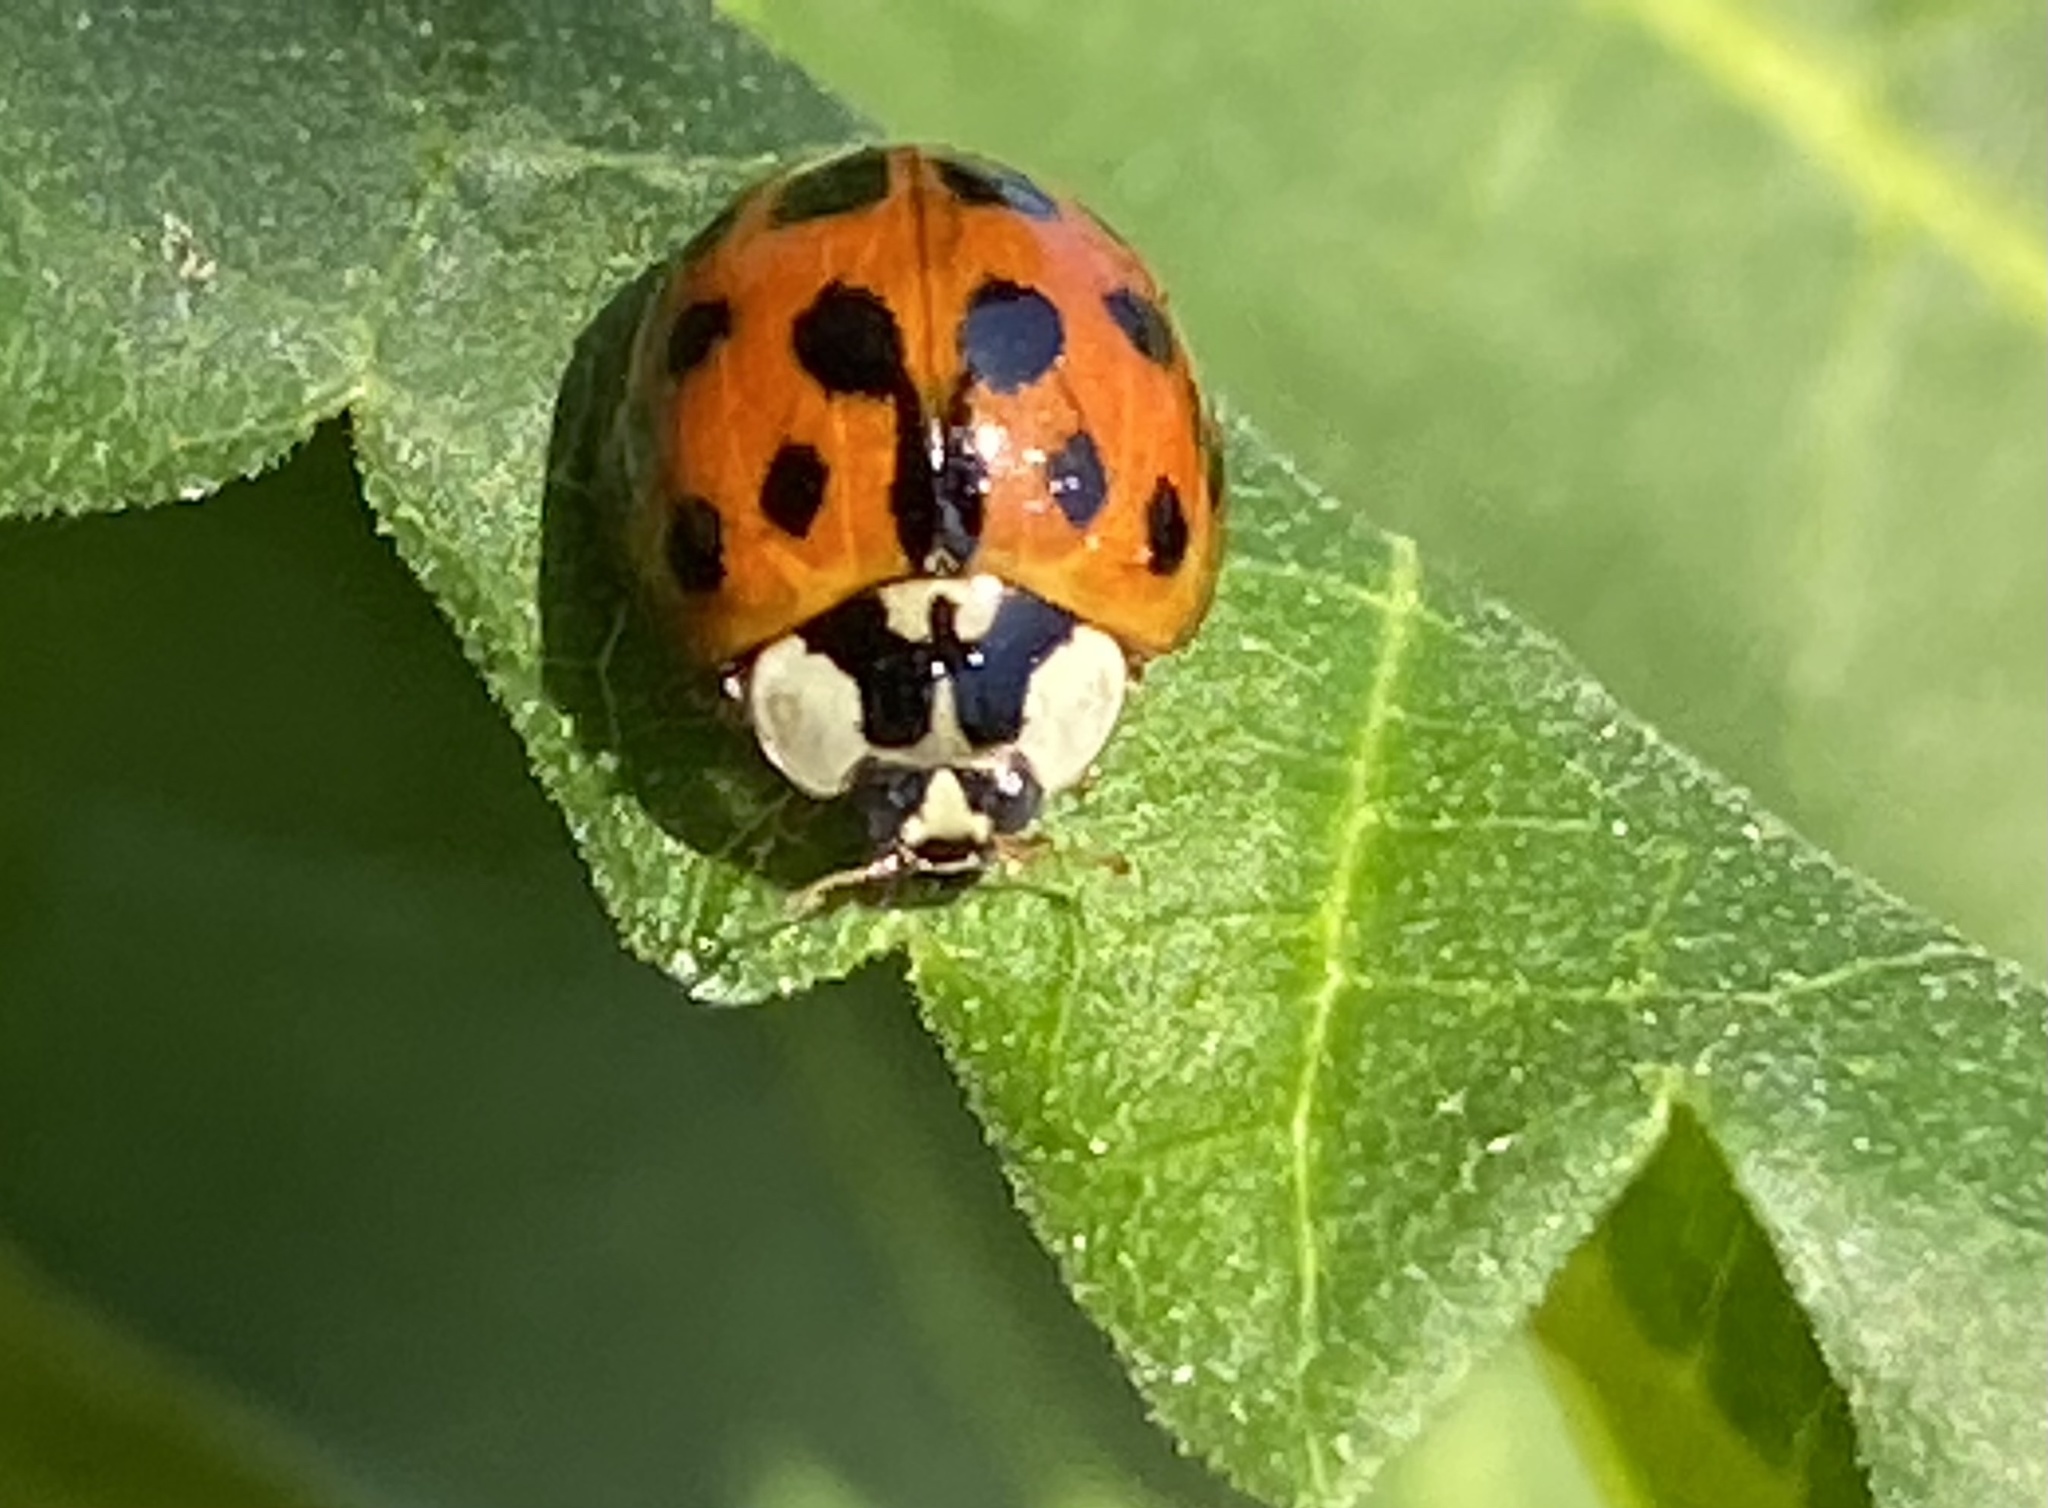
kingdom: Animalia
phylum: Arthropoda
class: Insecta
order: Coleoptera
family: Coccinellidae
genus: Harmonia
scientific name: Harmonia axyridis
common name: Harlequin ladybird
